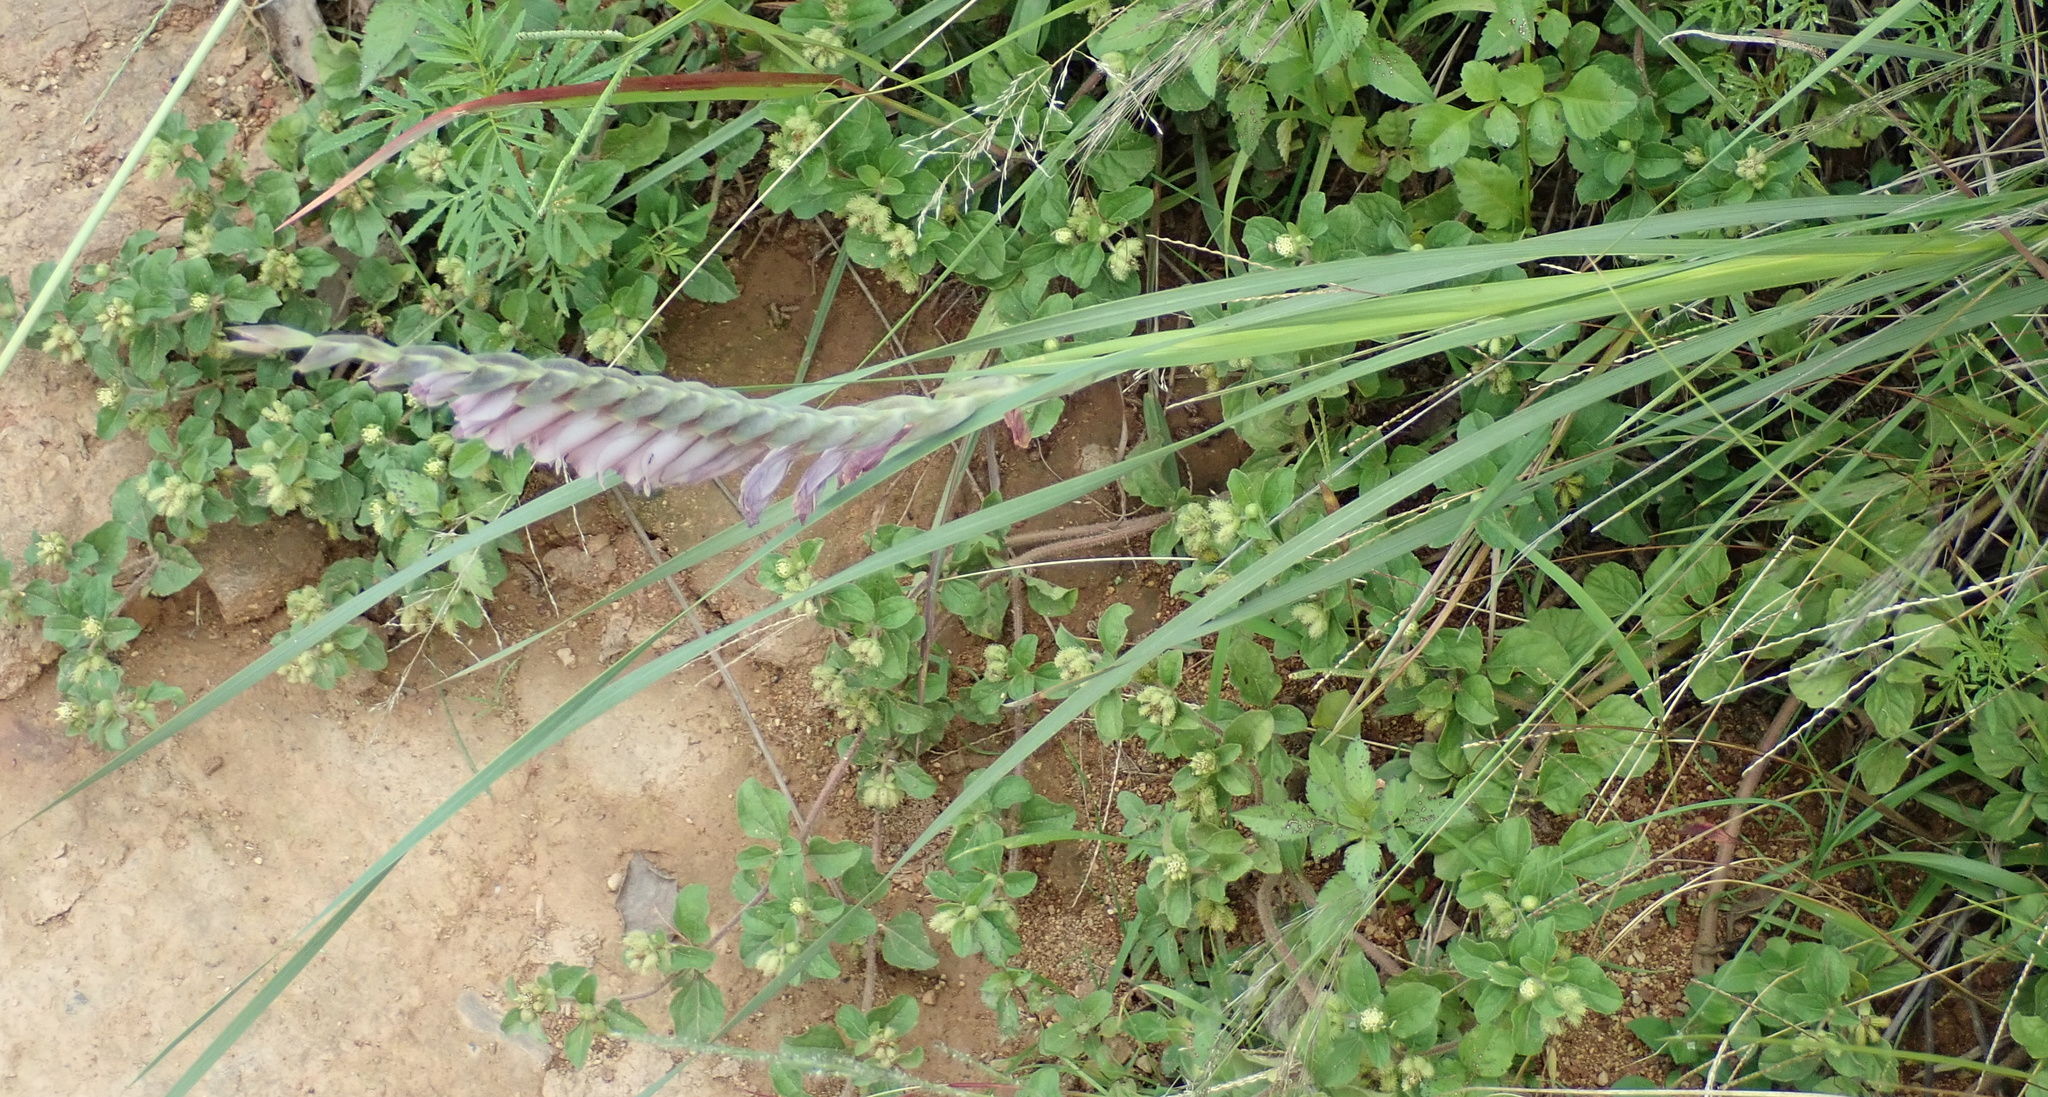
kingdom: Plantae
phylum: Tracheophyta
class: Liliopsida
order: Asparagales
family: Iridaceae
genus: Gladiolus
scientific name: Gladiolus densiflorus
